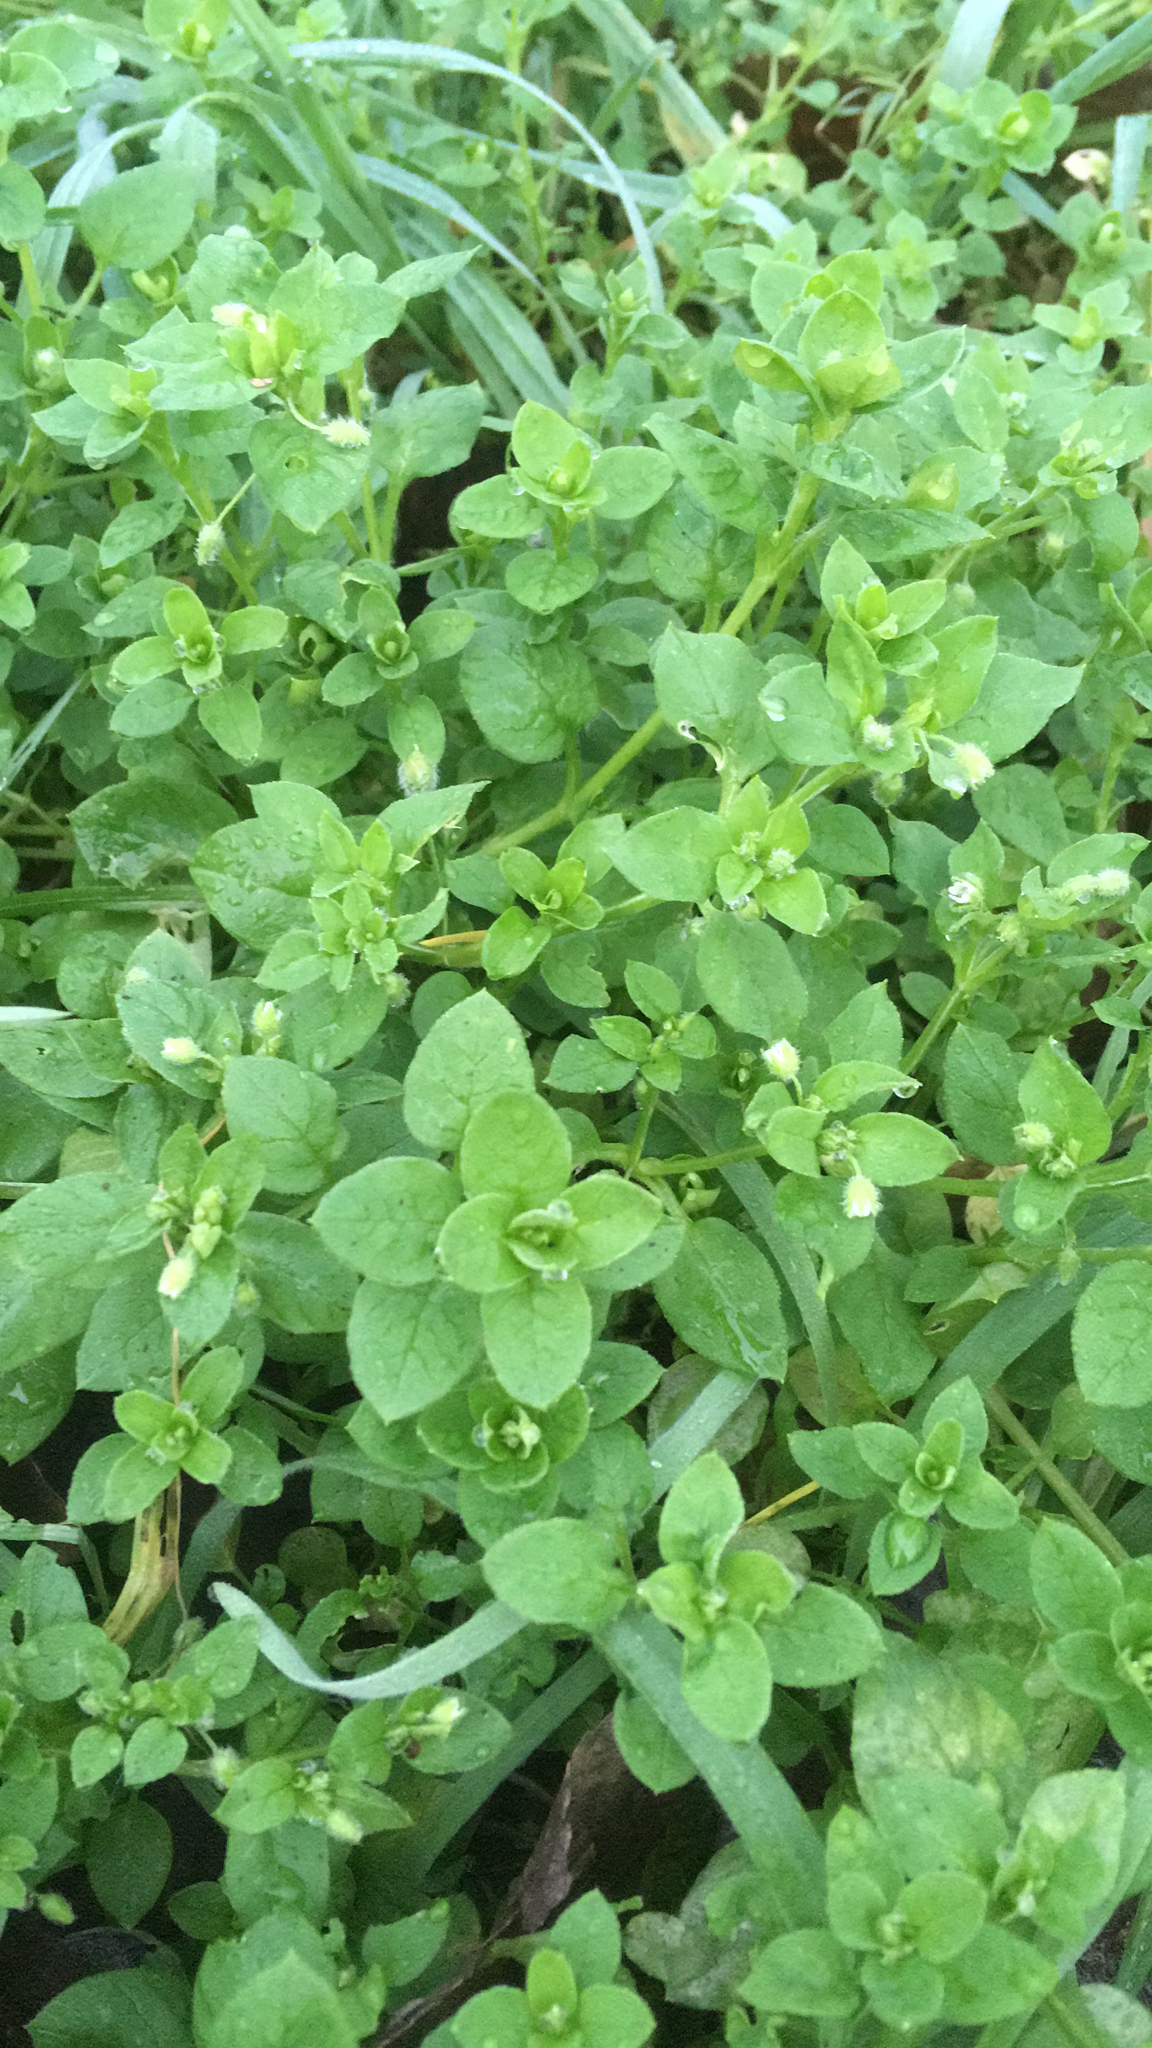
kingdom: Plantae
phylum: Tracheophyta
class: Magnoliopsida
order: Caryophyllales
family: Caryophyllaceae
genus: Stellaria
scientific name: Stellaria media
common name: Common chickweed
